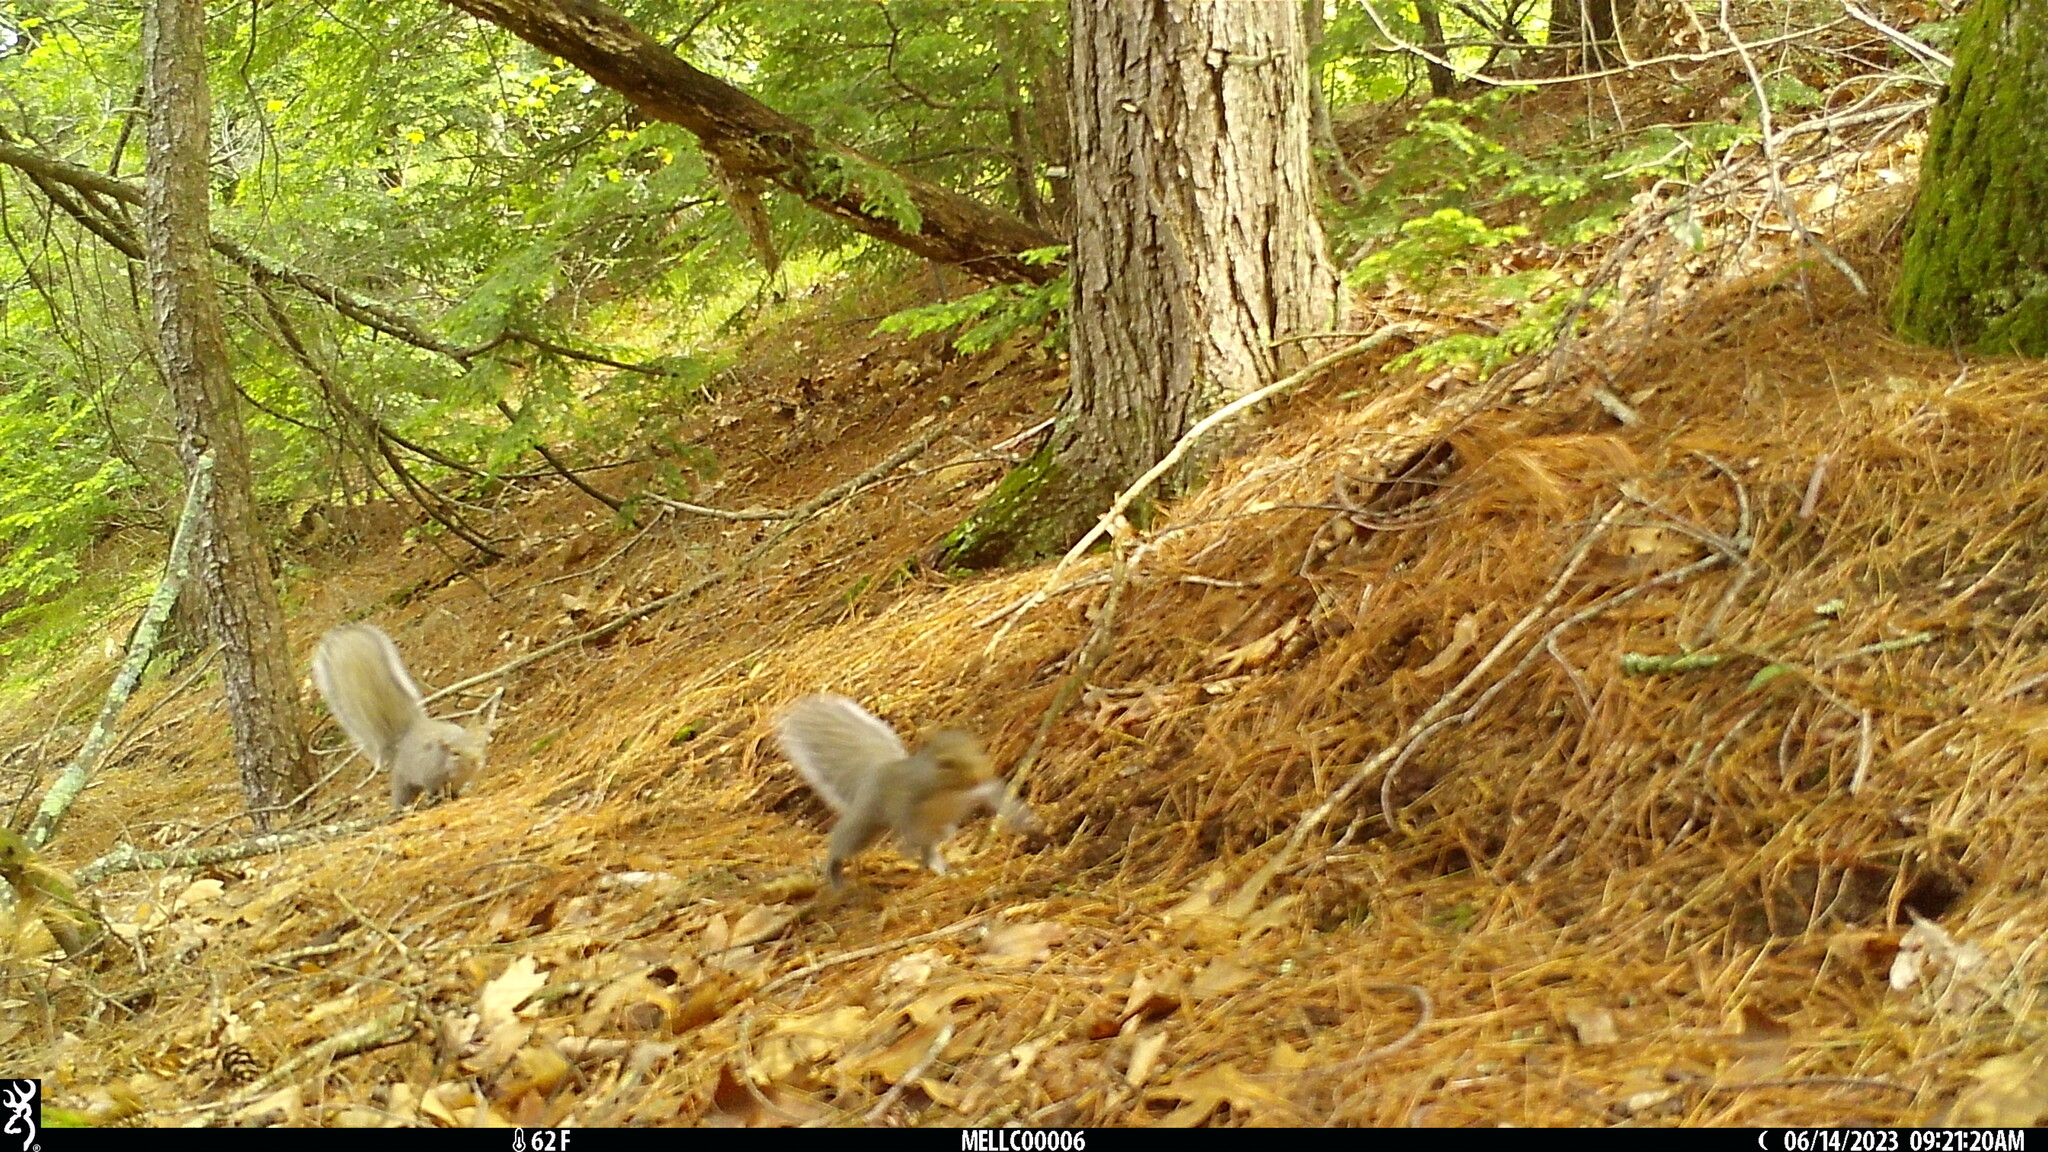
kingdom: Animalia
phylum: Chordata
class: Mammalia
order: Rodentia
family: Sciuridae
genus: Sciurus
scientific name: Sciurus carolinensis
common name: Eastern gray squirrel
